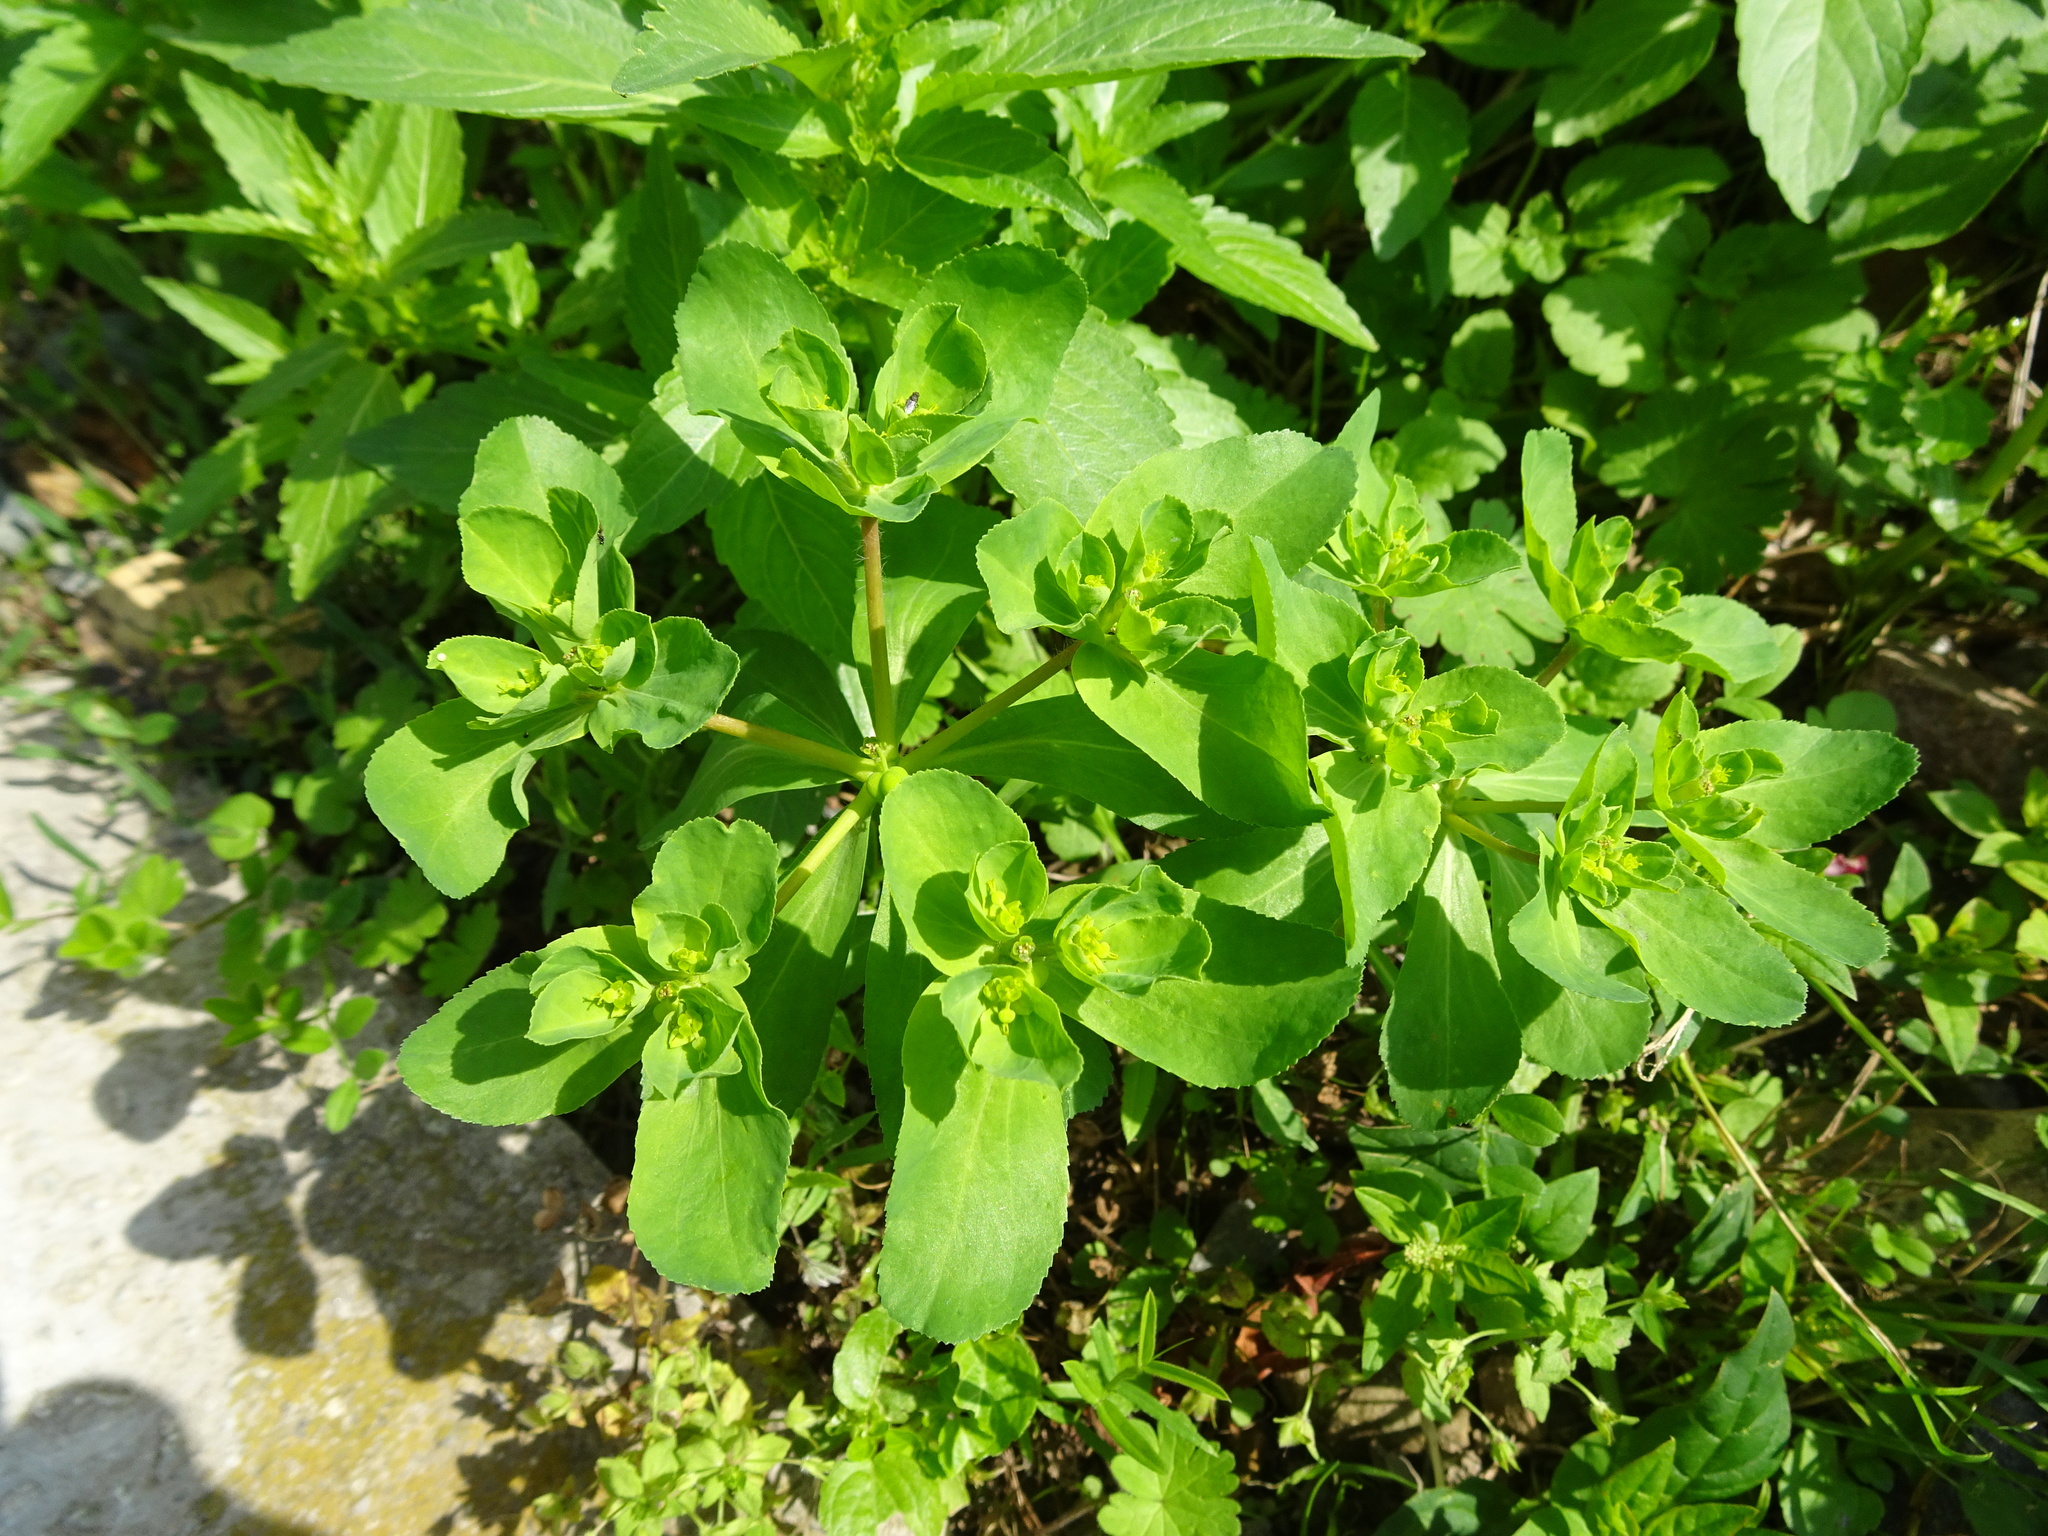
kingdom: Plantae
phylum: Tracheophyta
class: Magnoliopsida
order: Malpighiales
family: Euphorbiaceae
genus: Euphorbia
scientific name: Euphorbia helioscopia
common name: Sun spurge
